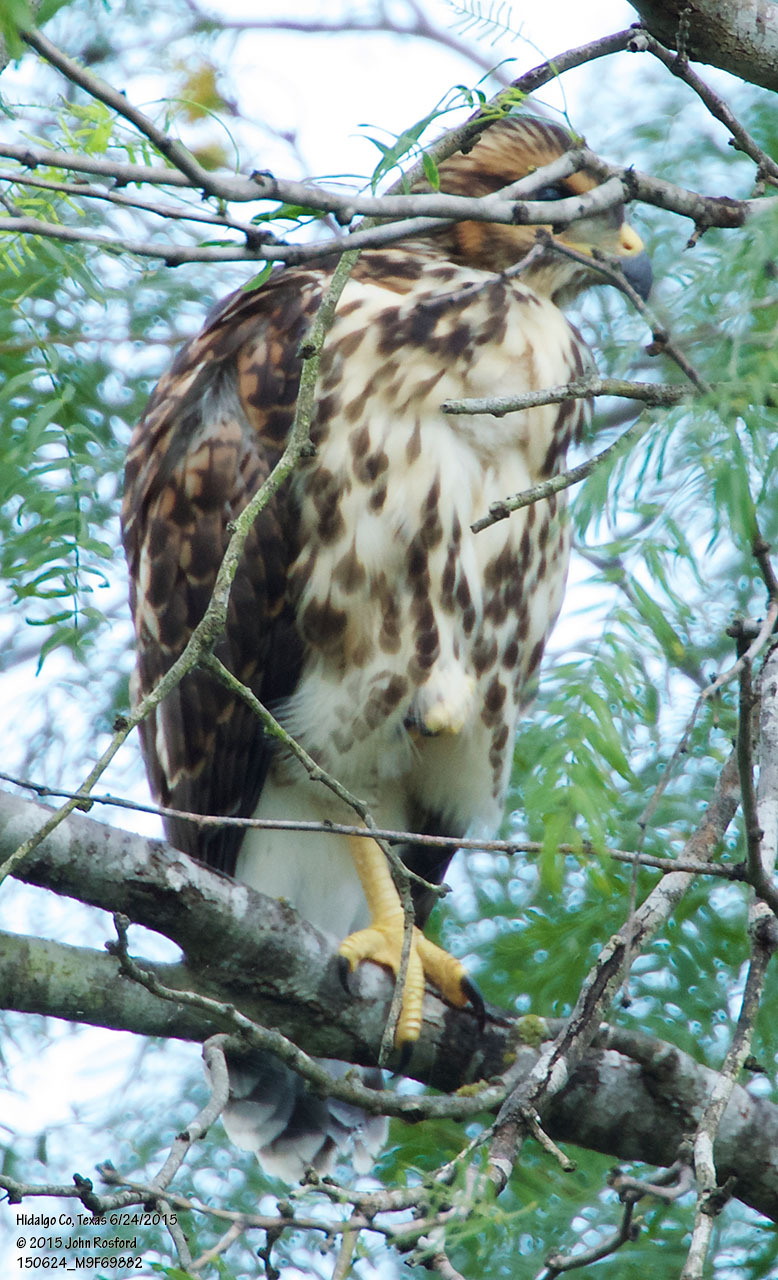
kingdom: Animalia
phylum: Chordata
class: Aves
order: Accipitriformes
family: Accipitridae
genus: Buteo
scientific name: Buteo nitidus
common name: Grey-lined hawk
